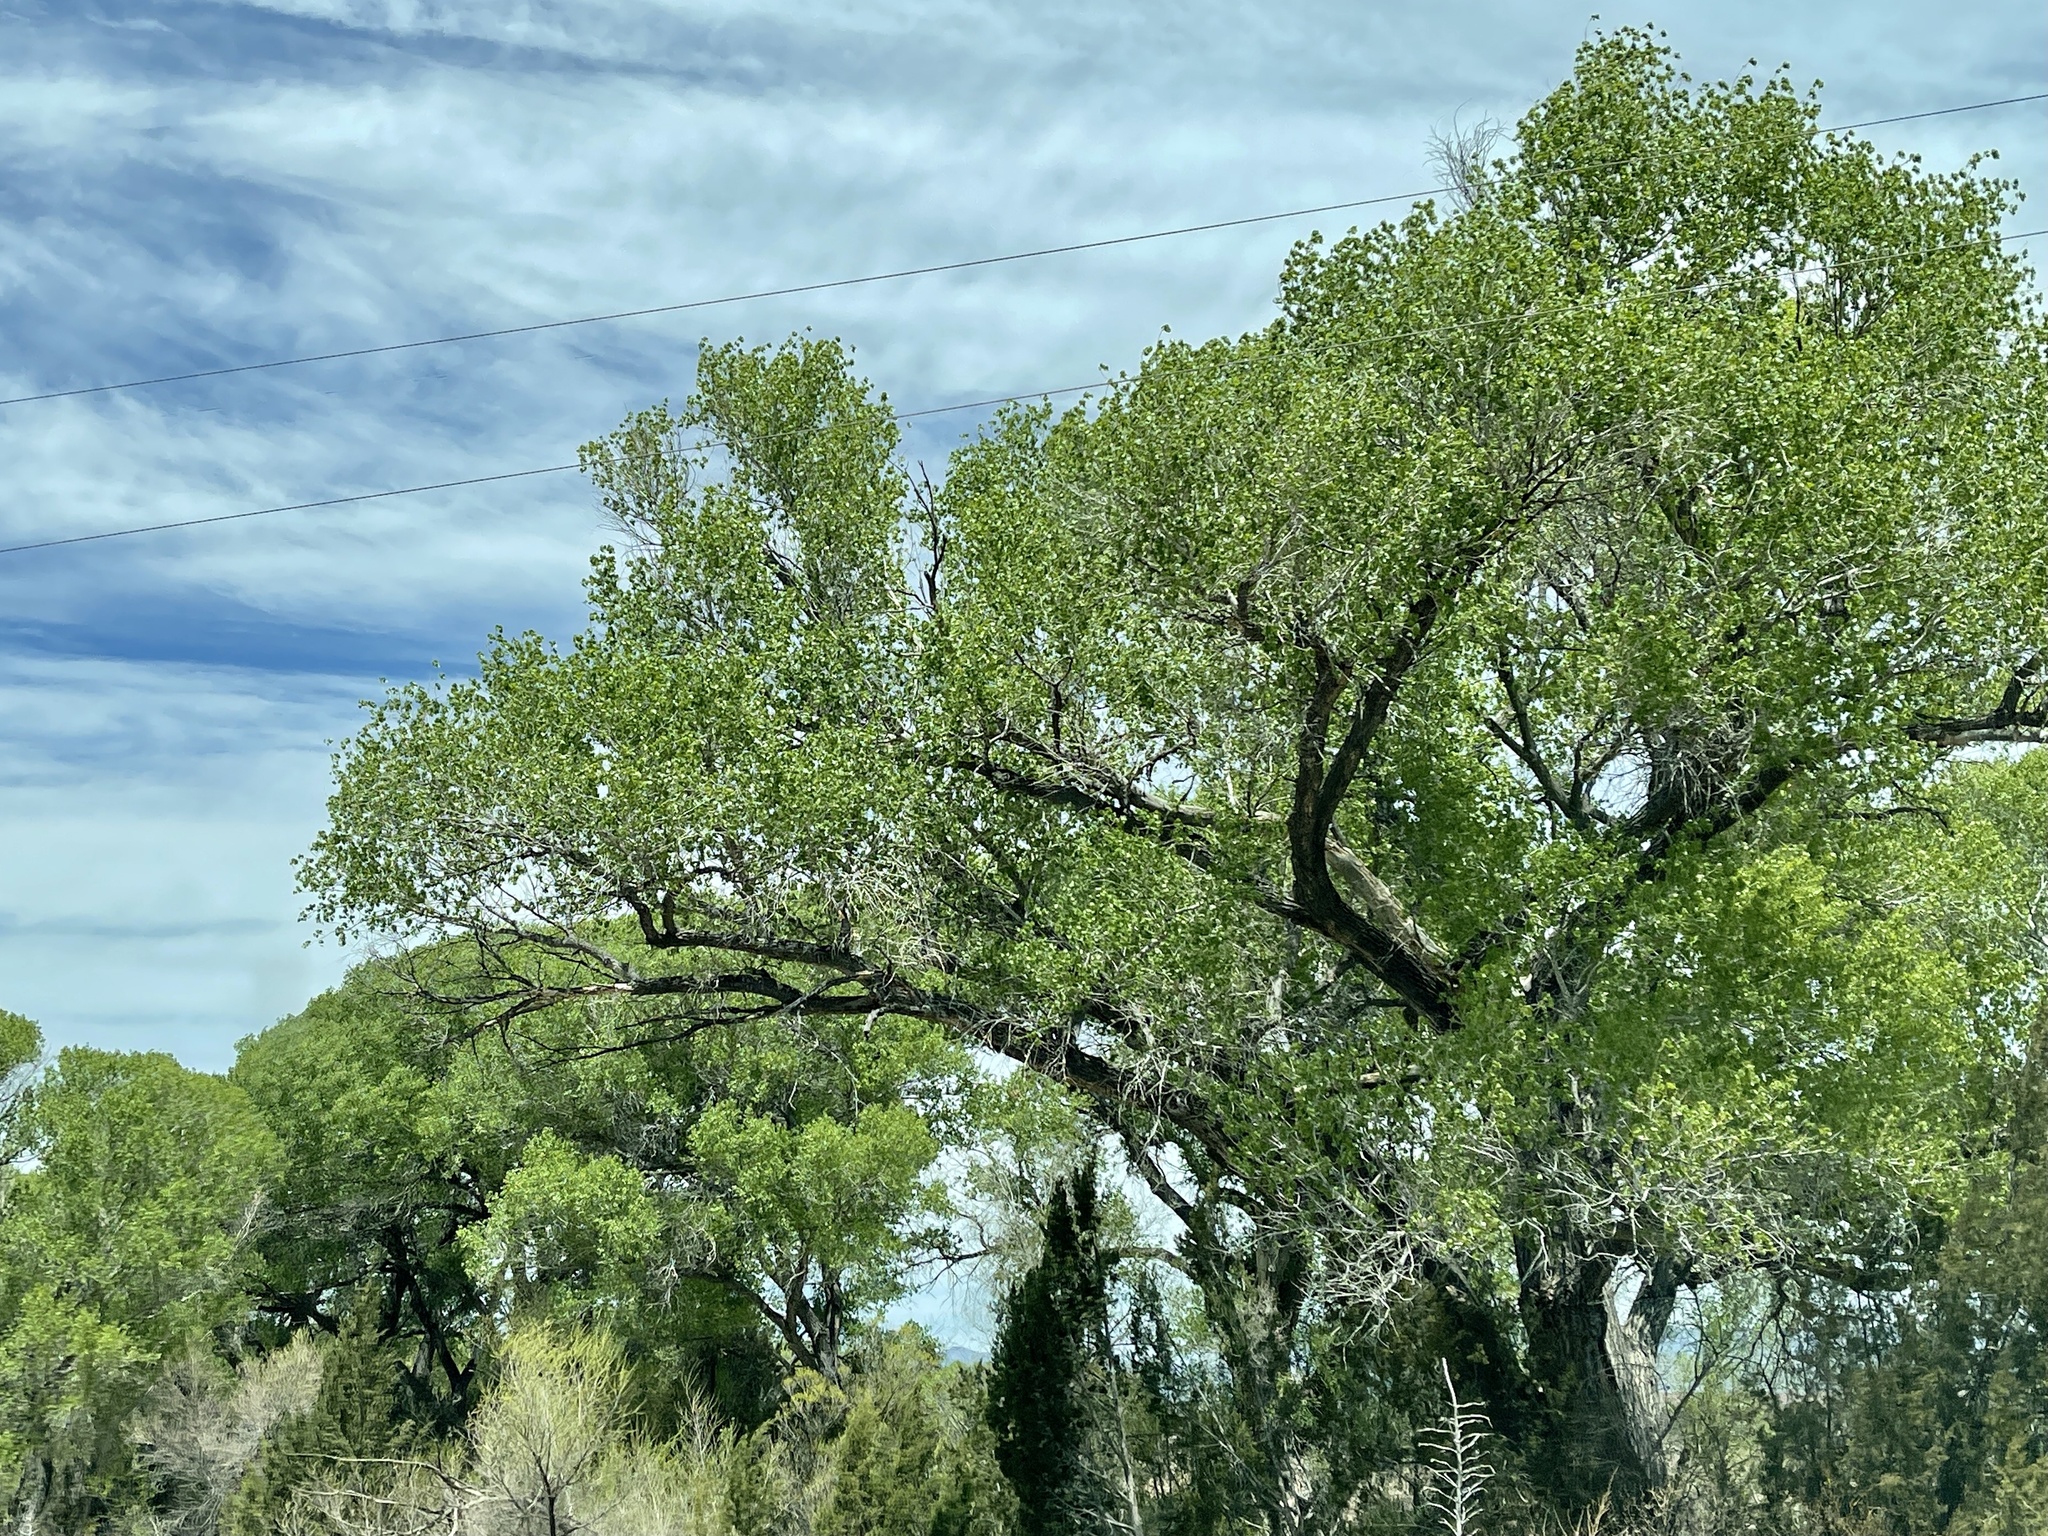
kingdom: Plantae
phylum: Tracheophyta
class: Magnoliopsida
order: Malpighiales
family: Salicaceae
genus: Populus
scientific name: Populus fremontii
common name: Fremont's cottonwood
